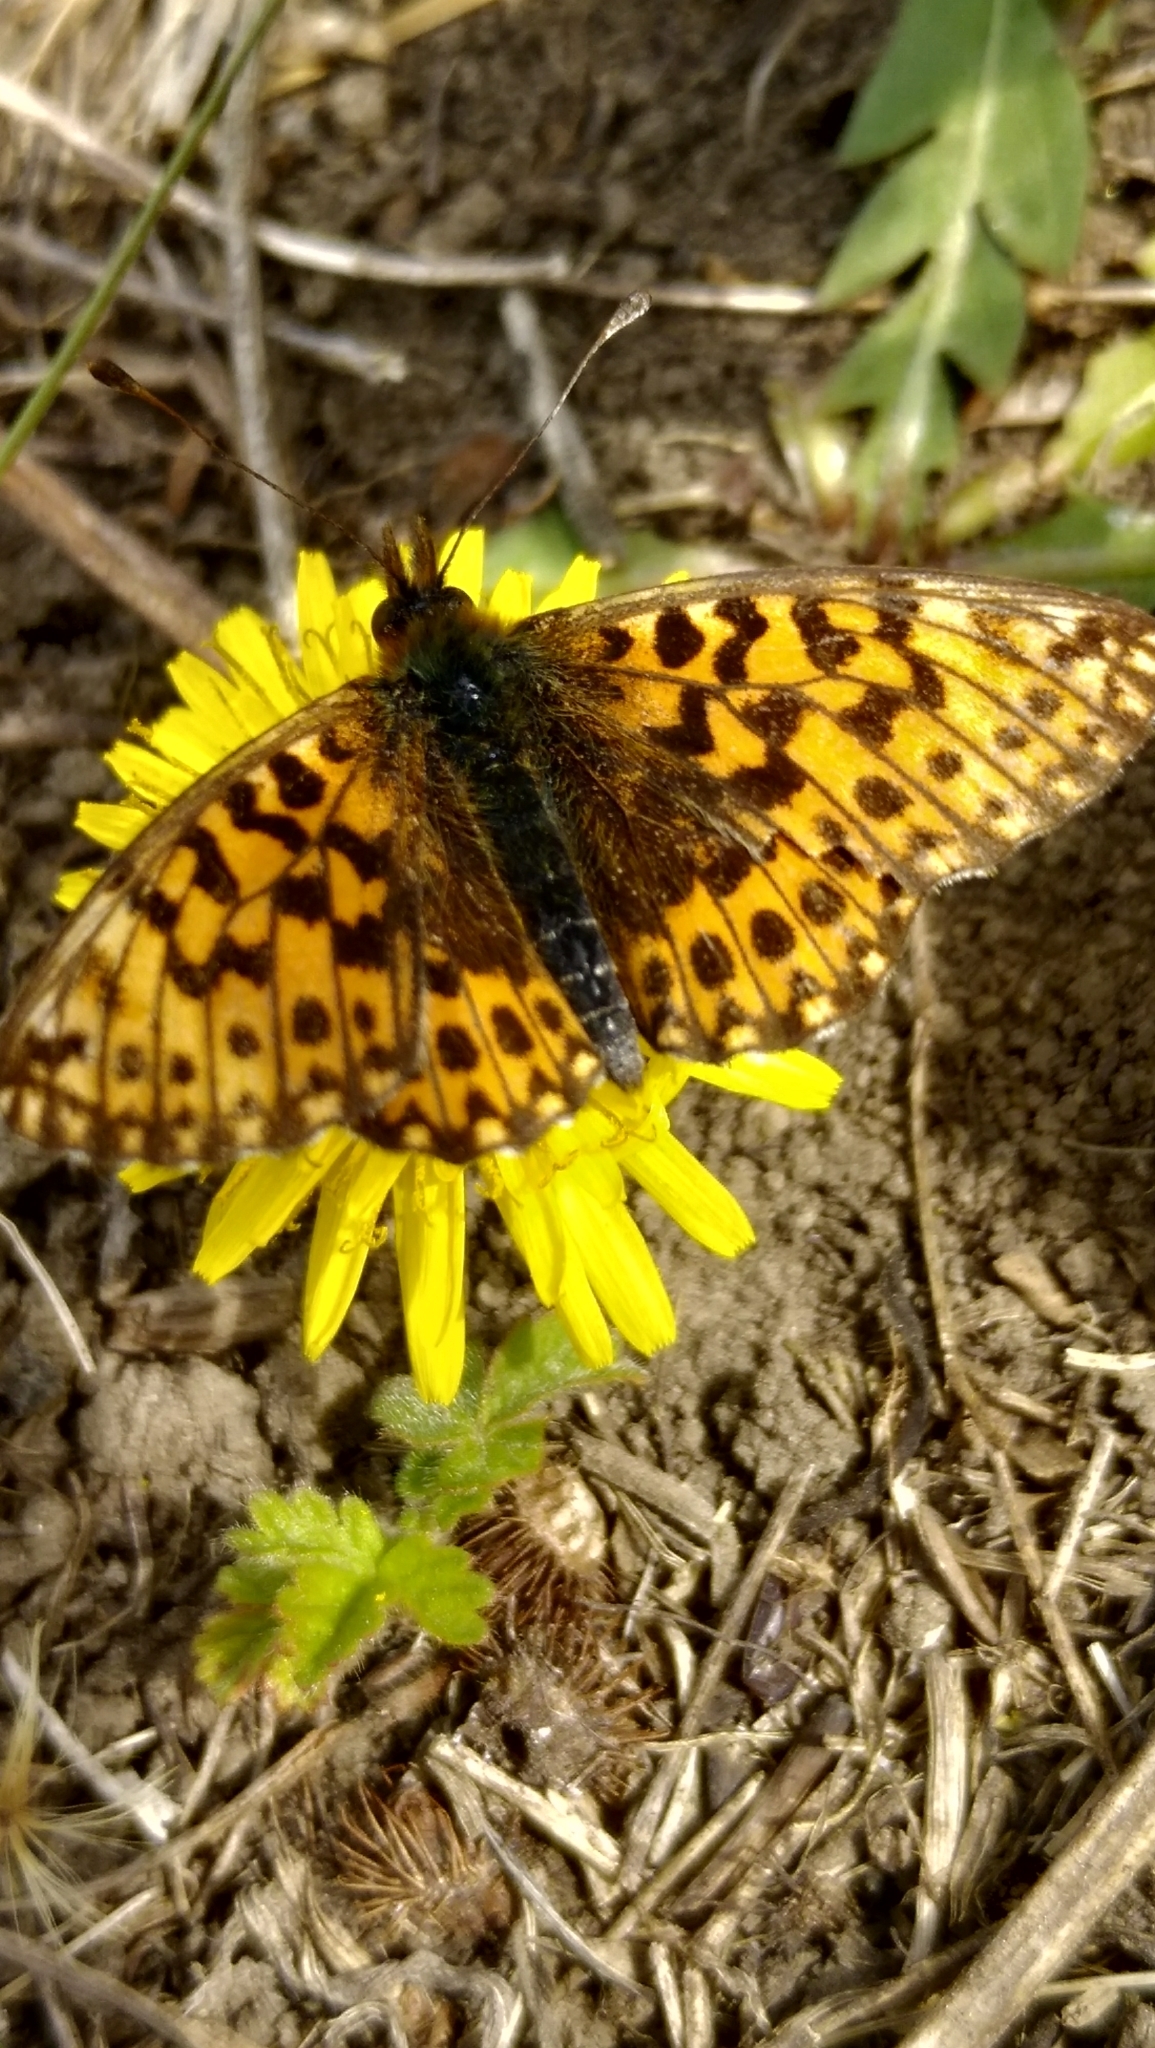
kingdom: Animalia
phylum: Arthropoda
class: Insecta
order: Lepidoptera
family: Nymphalidae
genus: Boloria
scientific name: Boloria dia
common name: Weaver's fritillary
